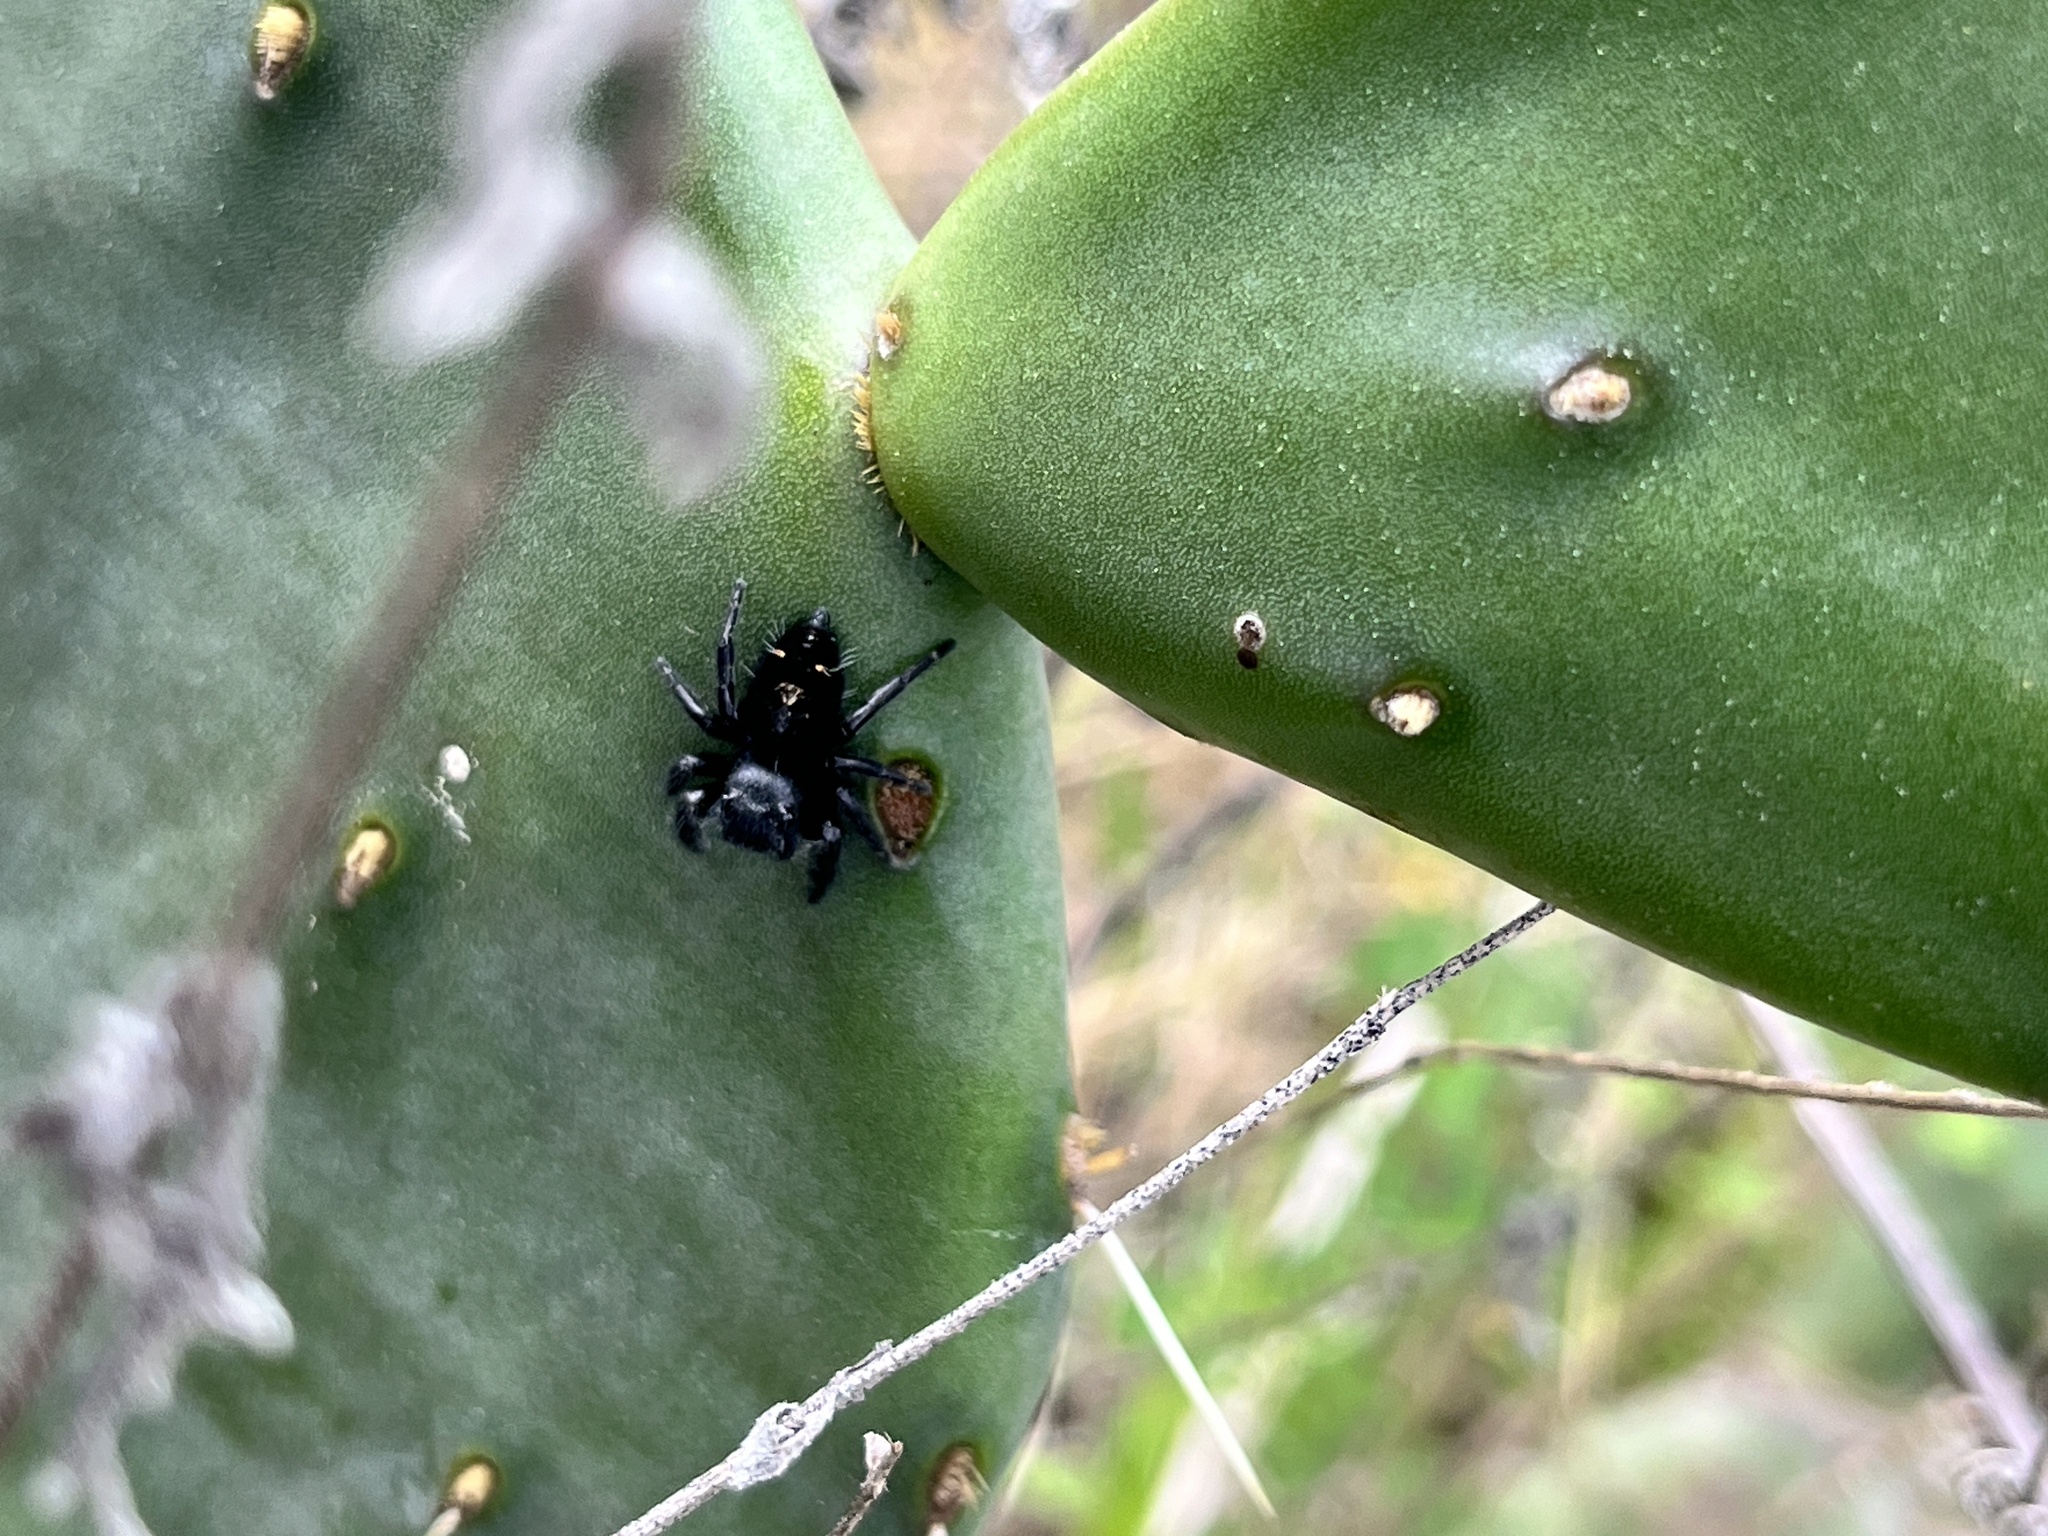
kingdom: Animalia
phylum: Arthropoda
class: Arachnida
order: Araneae
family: Salticidae
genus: Phidippus
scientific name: Phidippus audax
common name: Bold jumper
